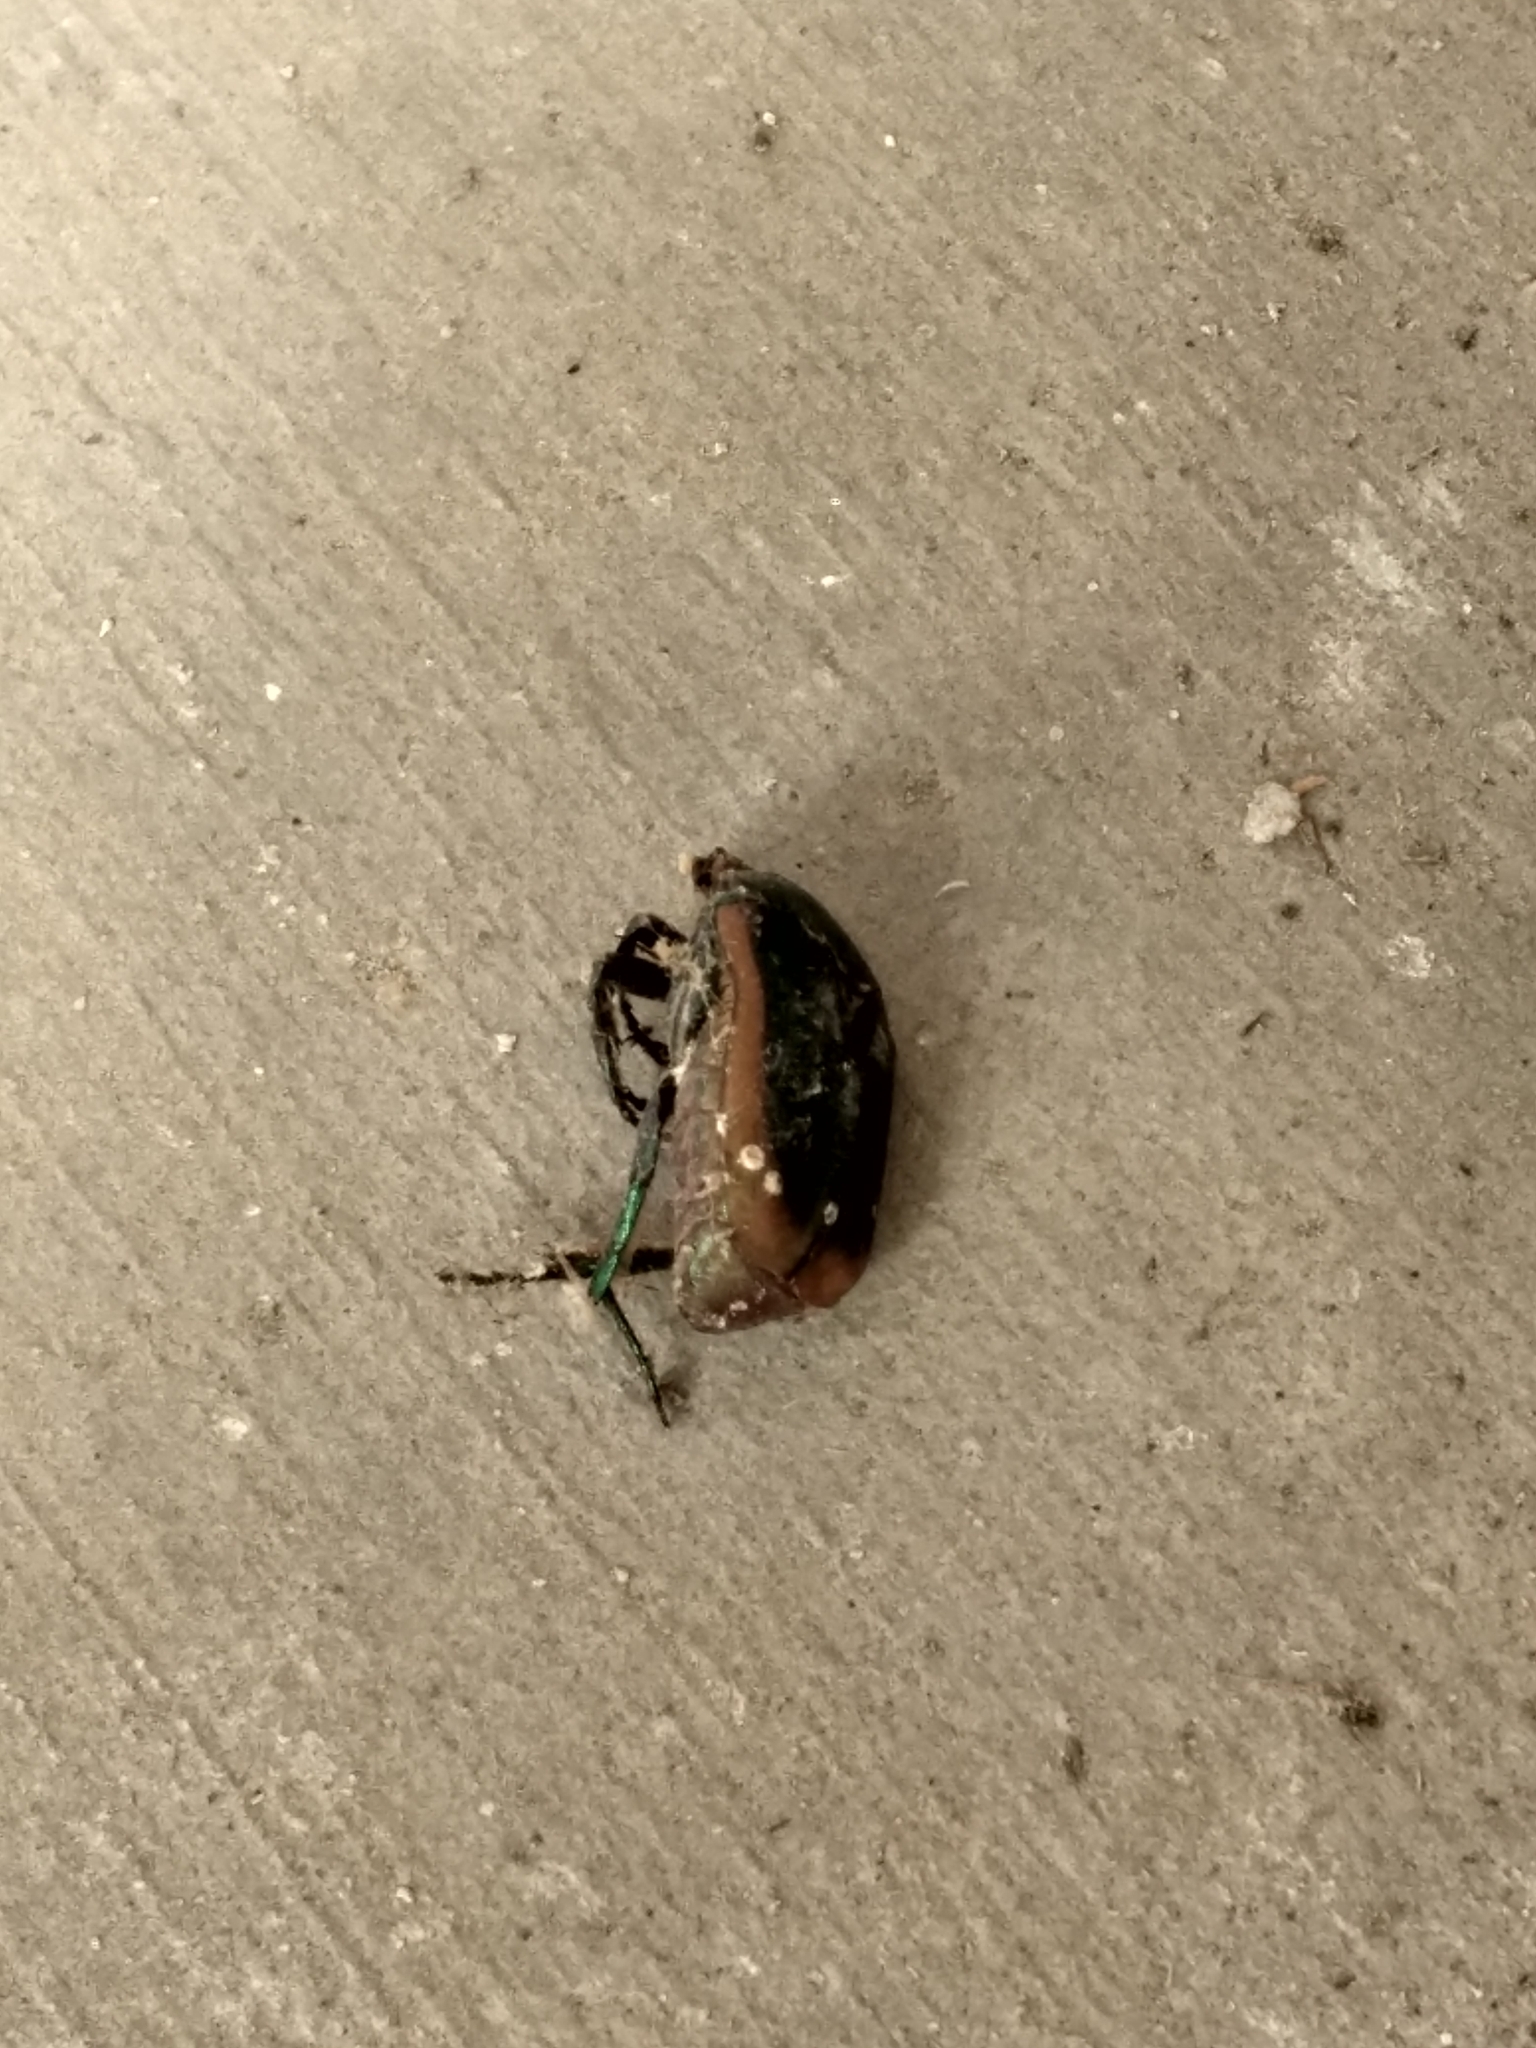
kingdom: Animalia
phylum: Arthropoda
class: Insecta
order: Coleoptera
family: Scarabaeidae
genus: Cotinis
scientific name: Cotinis mutabilis
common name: Figeater beetle
